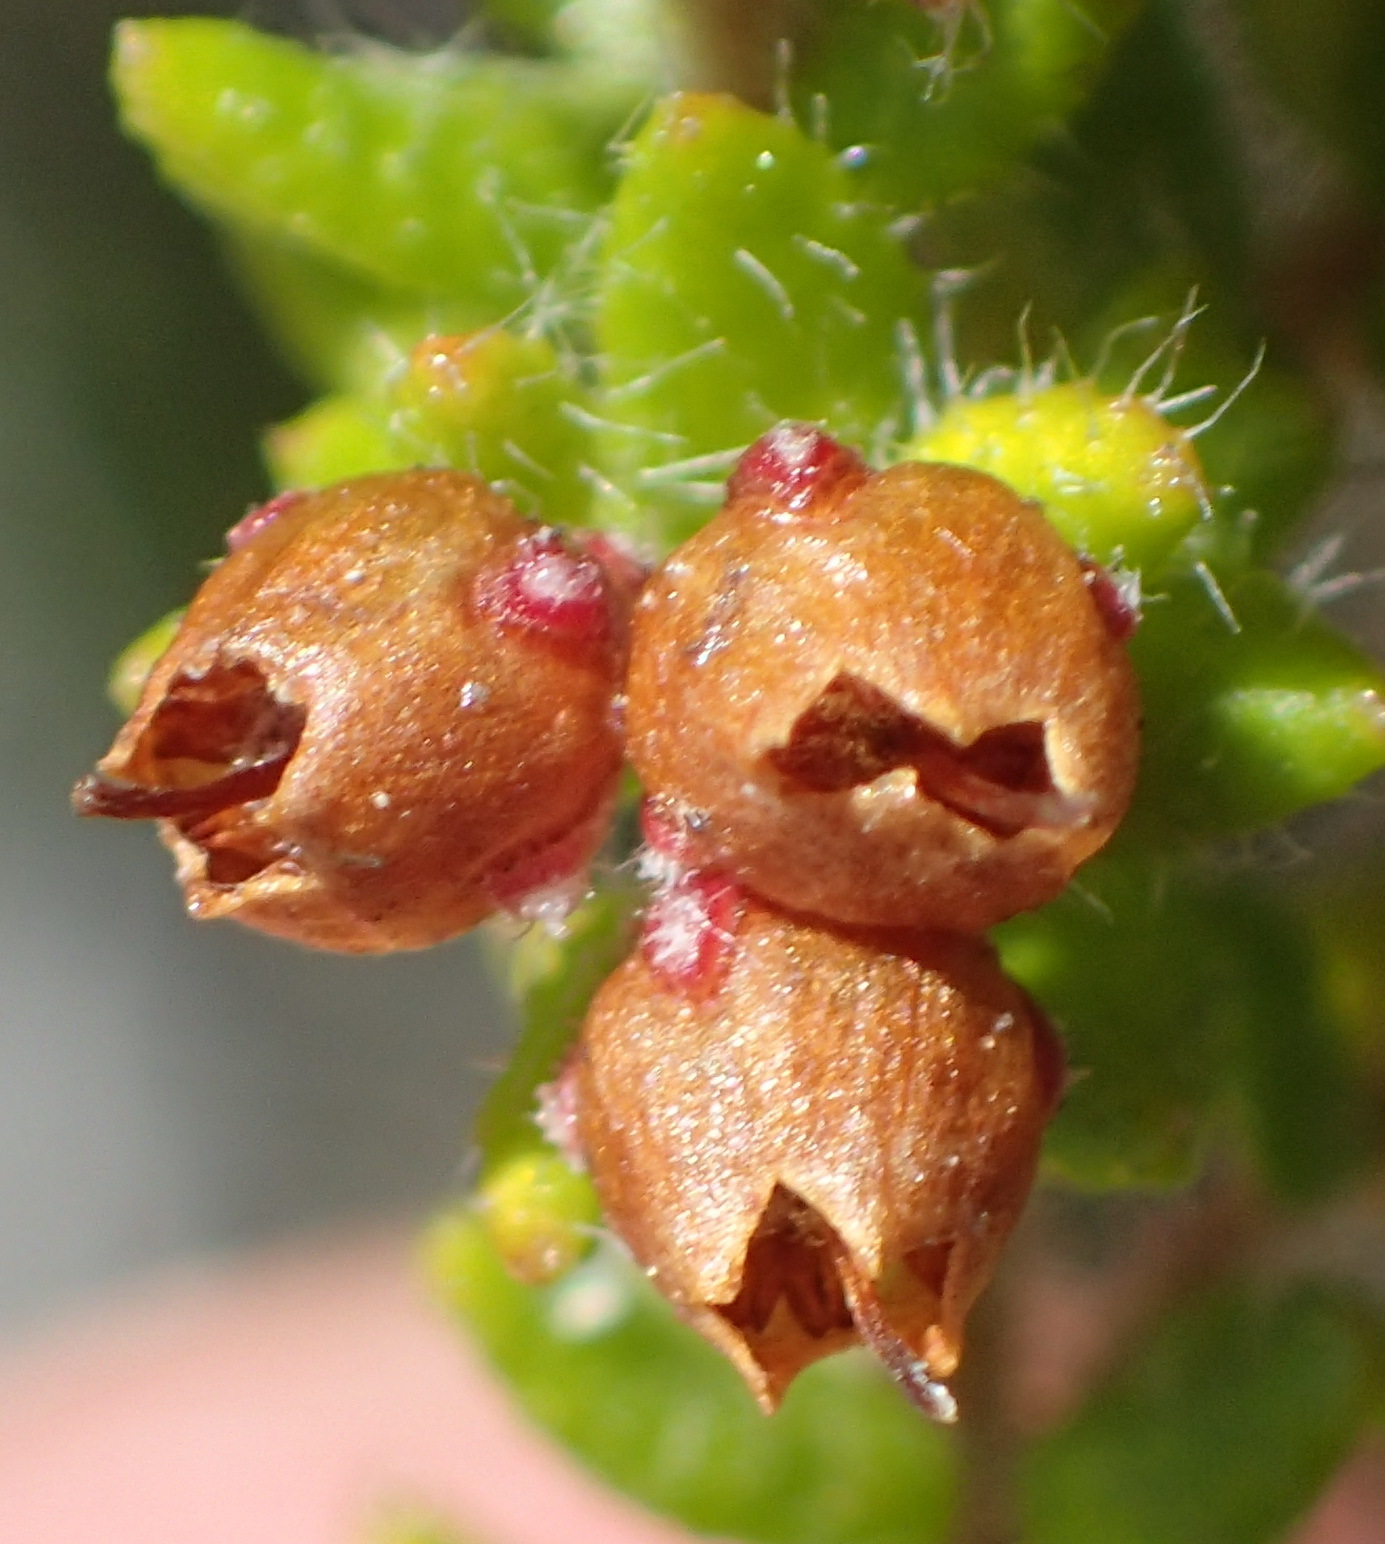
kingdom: Plantae
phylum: Tracheophyta
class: Magnoliopsida
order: Ericales
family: Ericaceae
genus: Erica
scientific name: Erica cordata
